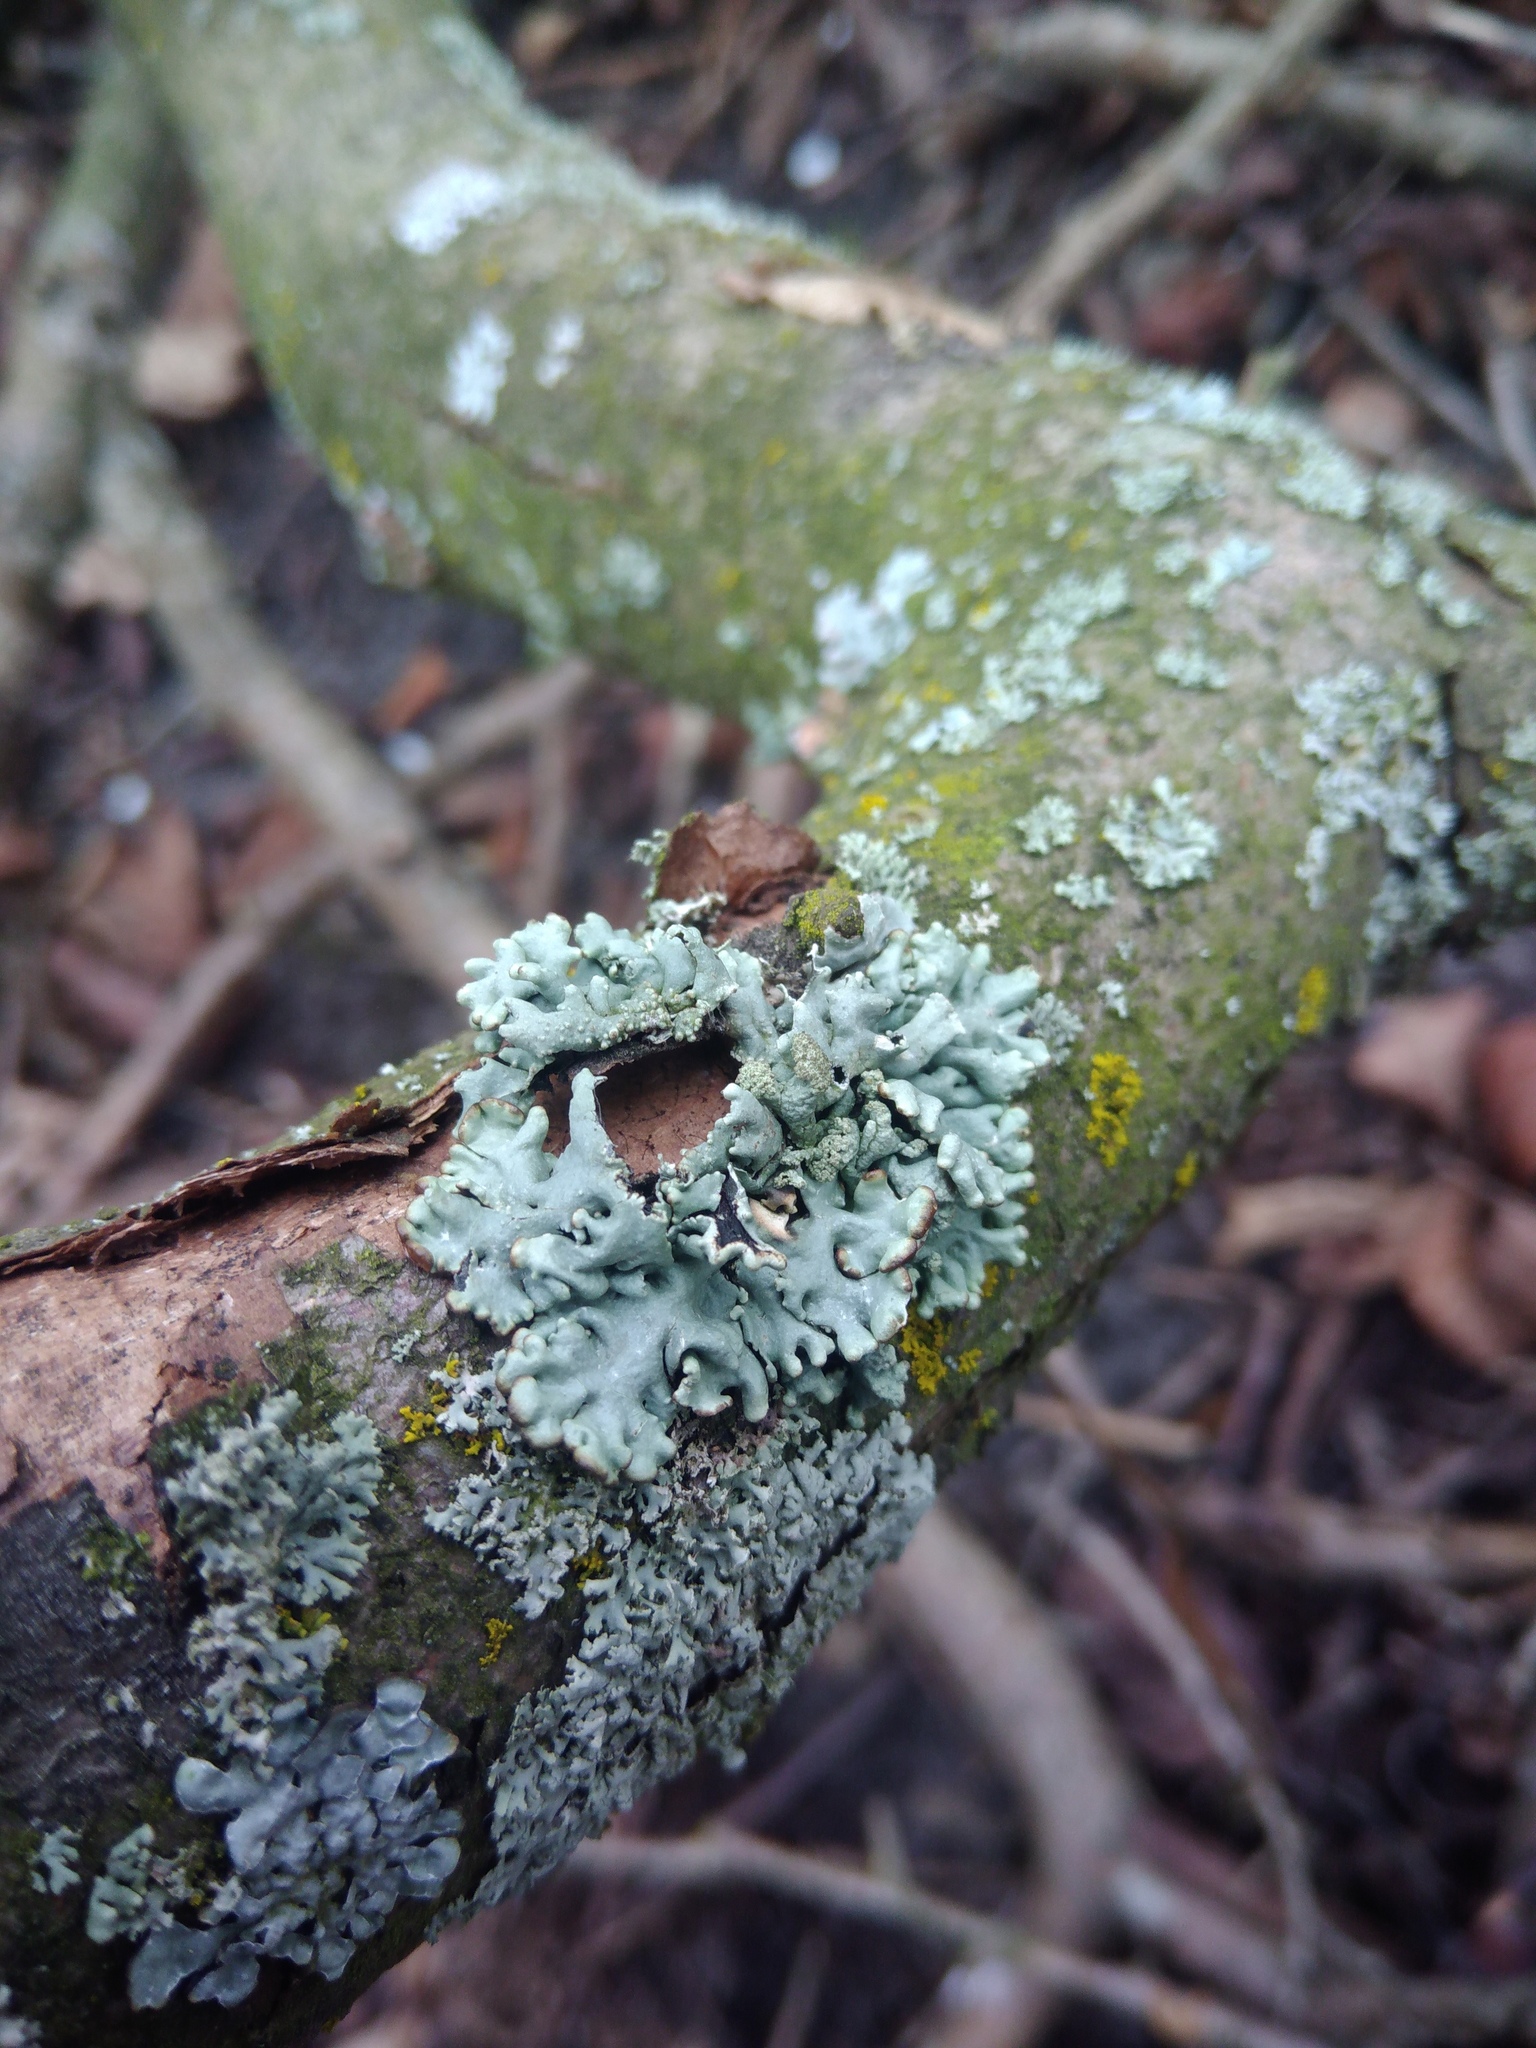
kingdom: Fungi
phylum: Ascomycota
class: Lecanoromycetes
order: Lecanorales
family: Parmeliaceae
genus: Hypogymnia
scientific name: Hypogymnia physodes
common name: Dark crottle
